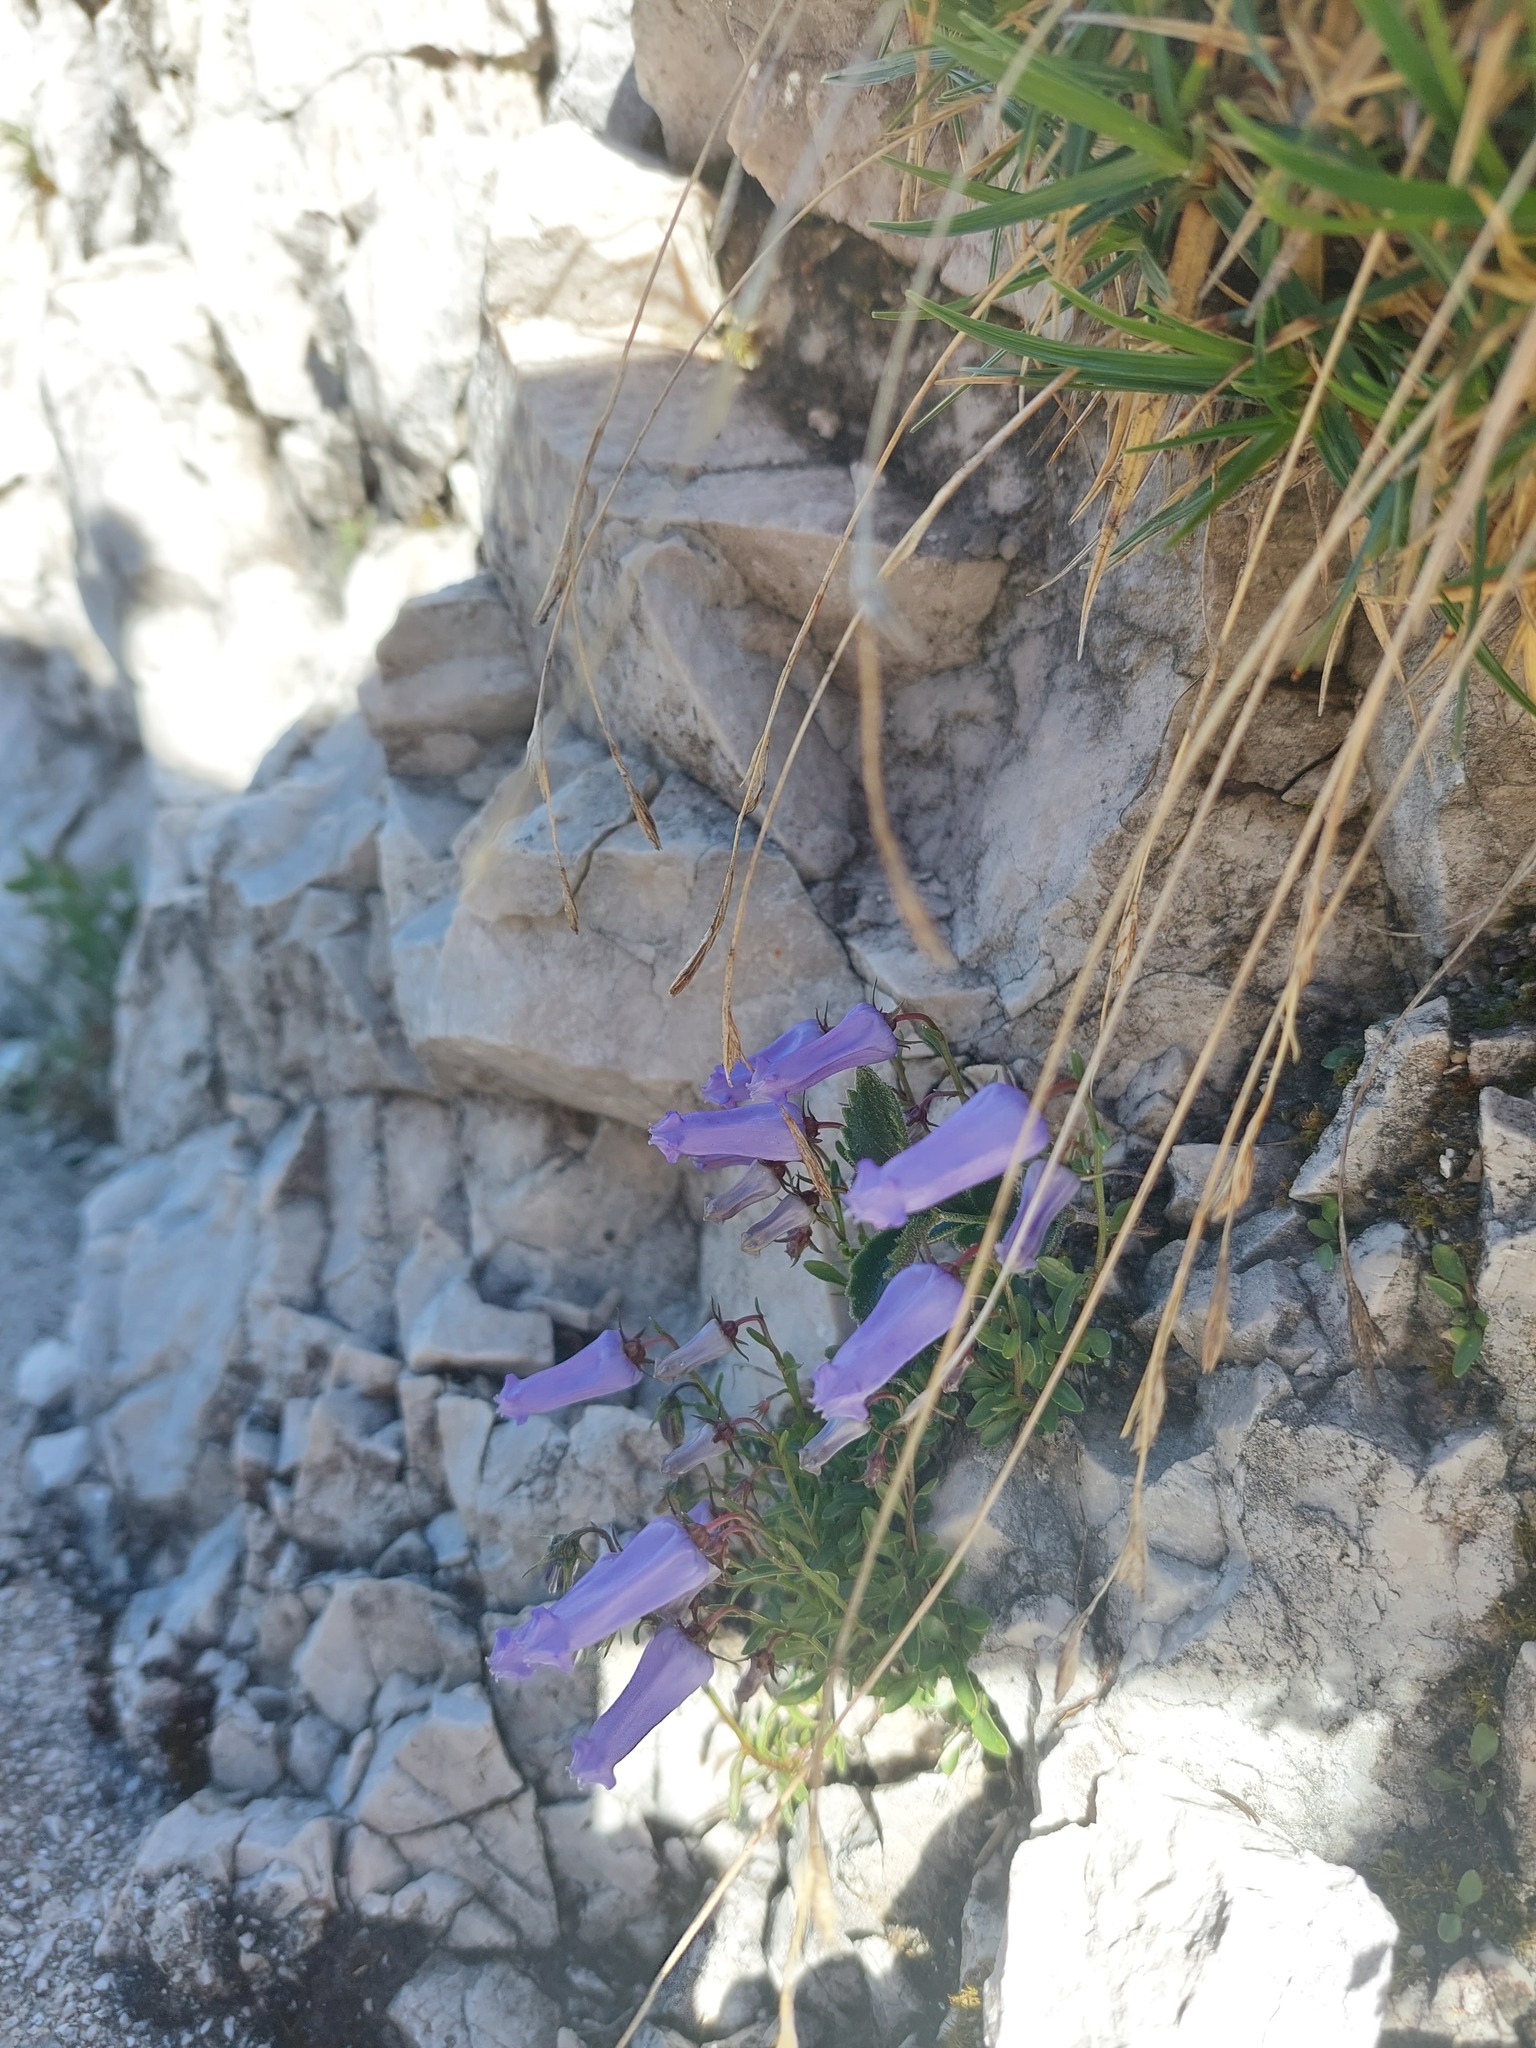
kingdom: Plantae
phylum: Tracheophyta
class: Magnoliopsida
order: Asterales
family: Campanulaceae
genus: Favratia
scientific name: Favratia zoysii
